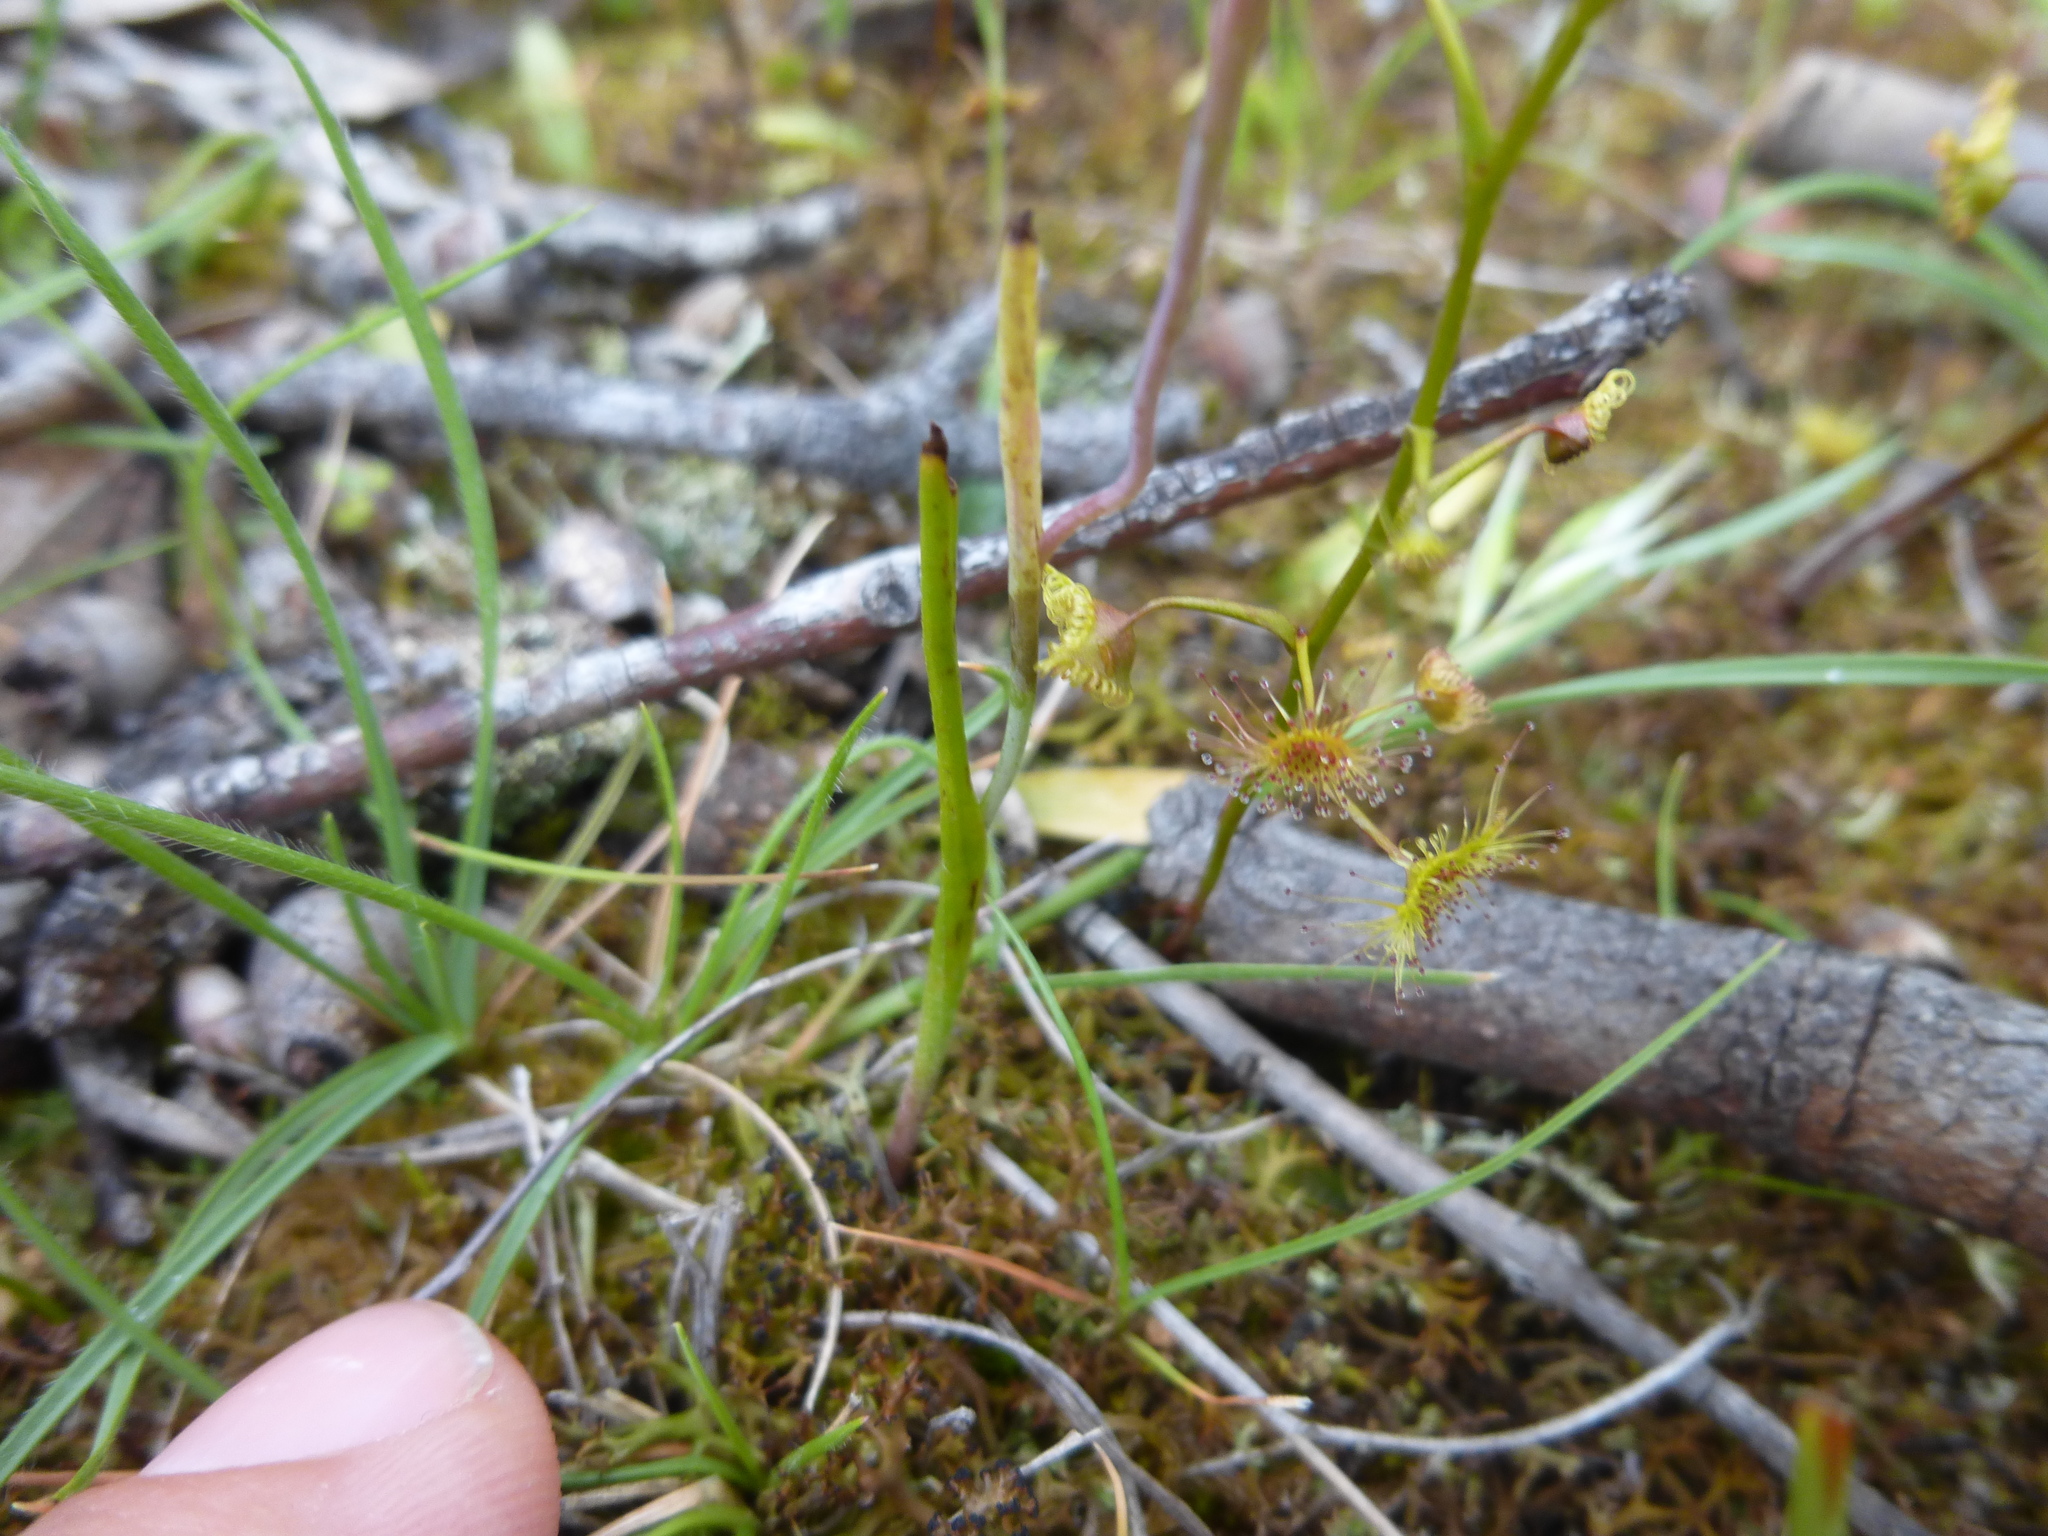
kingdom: Plantae
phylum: Tracheophyta
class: Liliopsida
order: Asparagales
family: Orchidaceae
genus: Thelymitra
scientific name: Thelymitra antennifera
